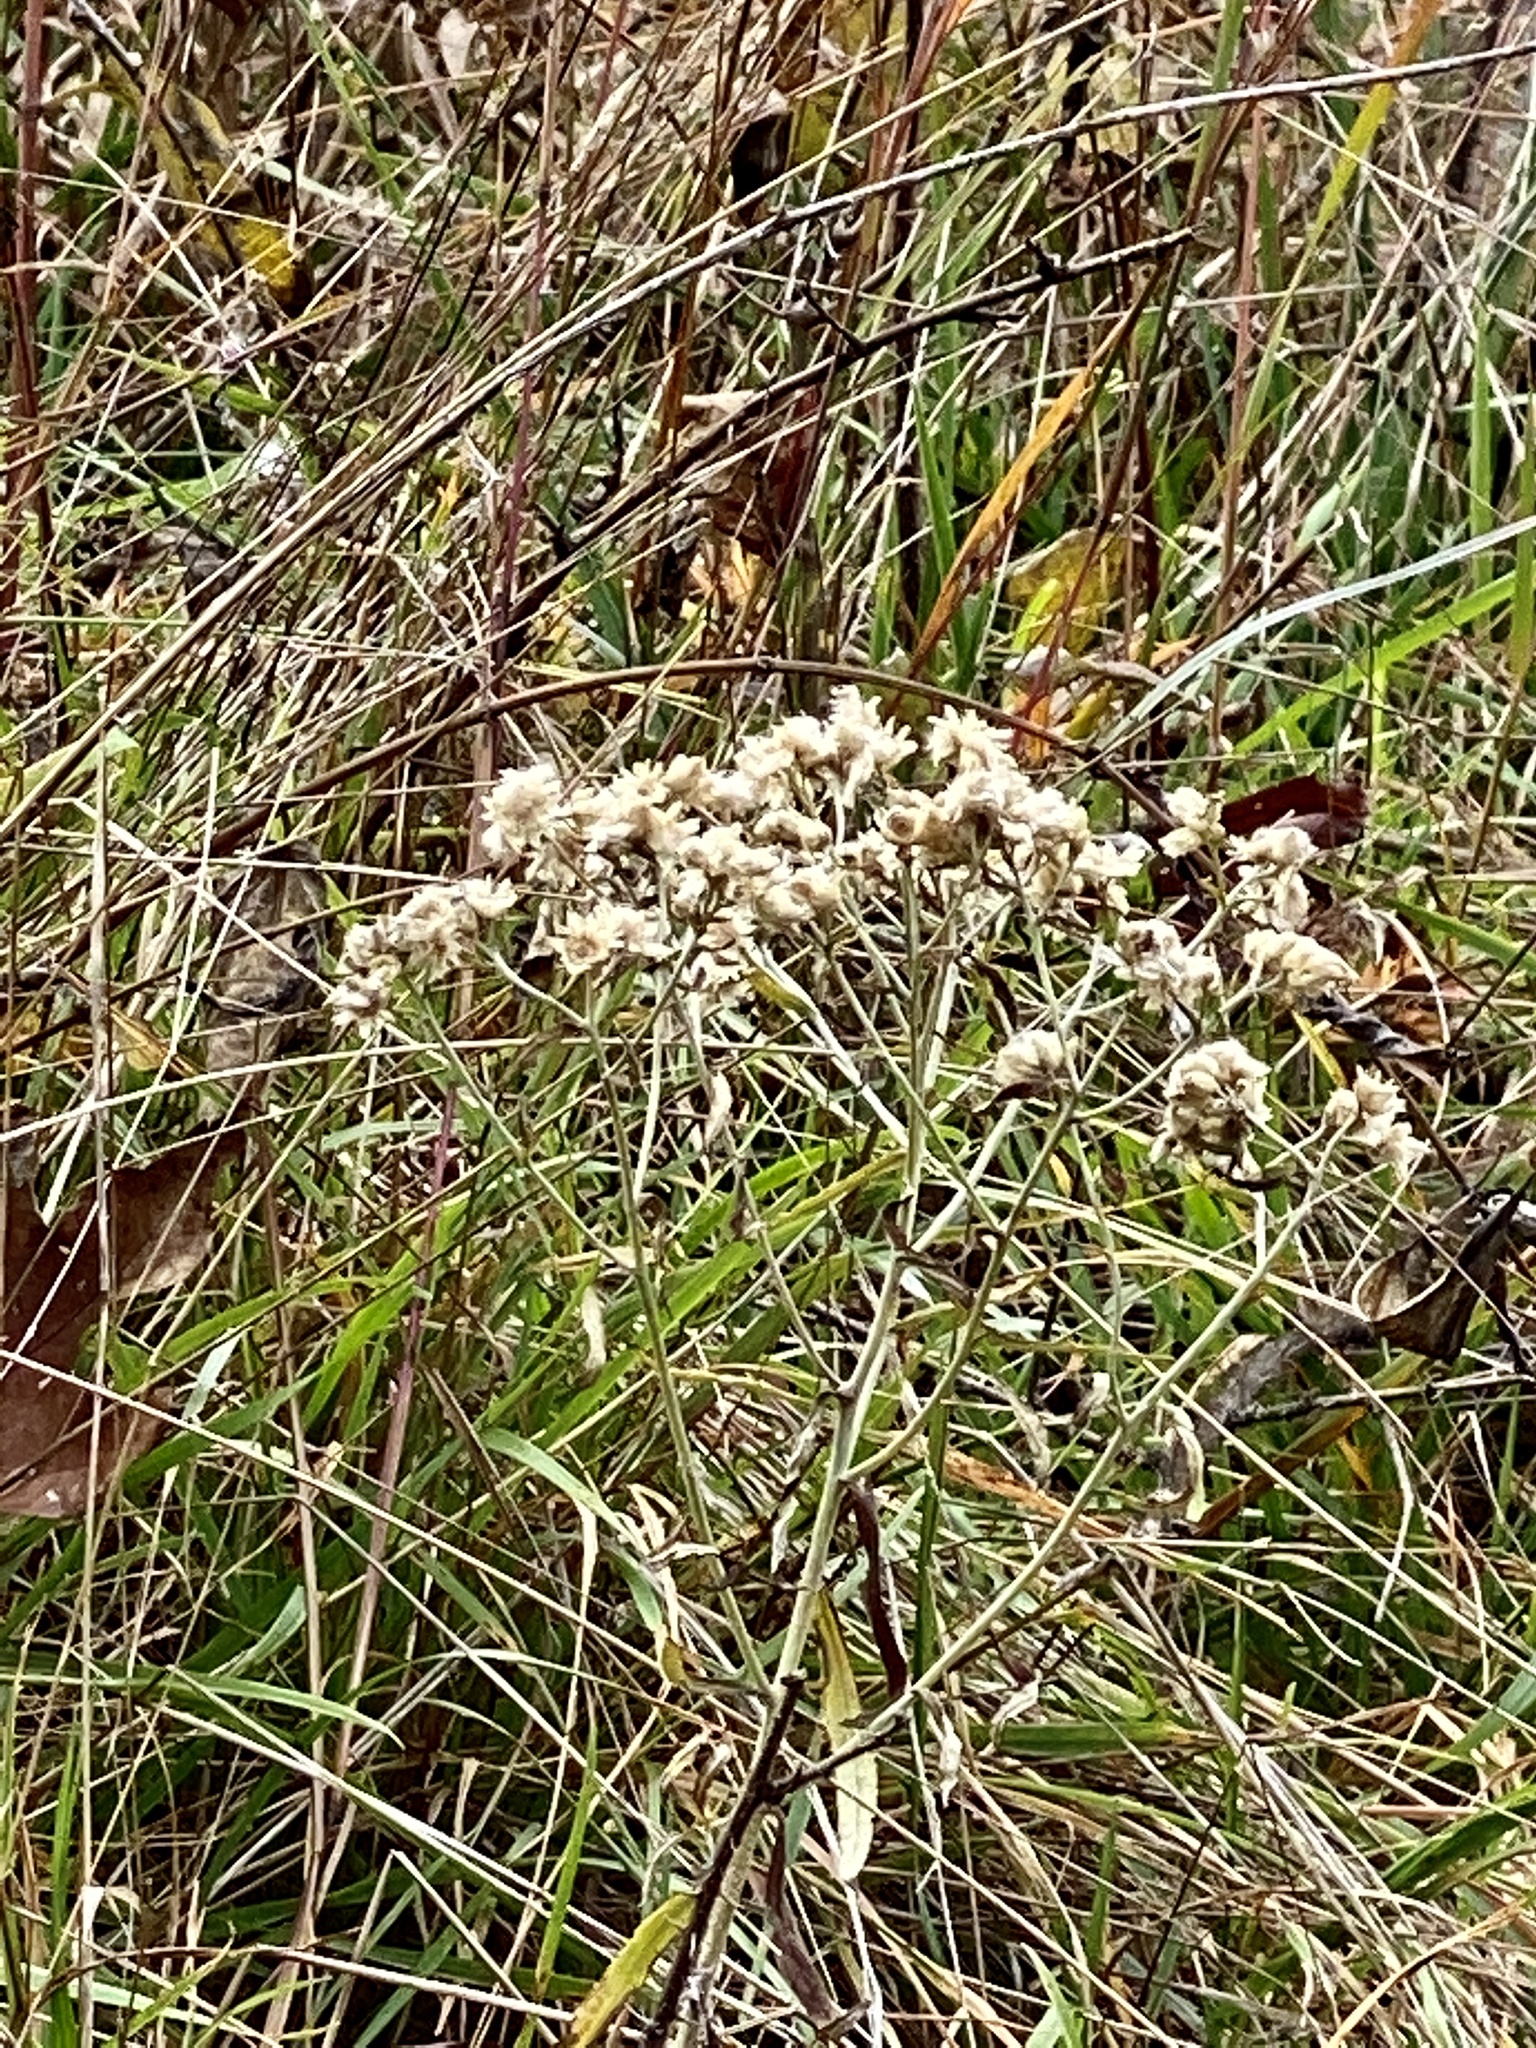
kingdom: Plantae
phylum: Tracheophyta
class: Magnoliopsida
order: Asterales
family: Asteraceae
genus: Pseudognaphalium
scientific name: Pseudognaphalium obtusifolium
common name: Eastern rabbit-tobacco
